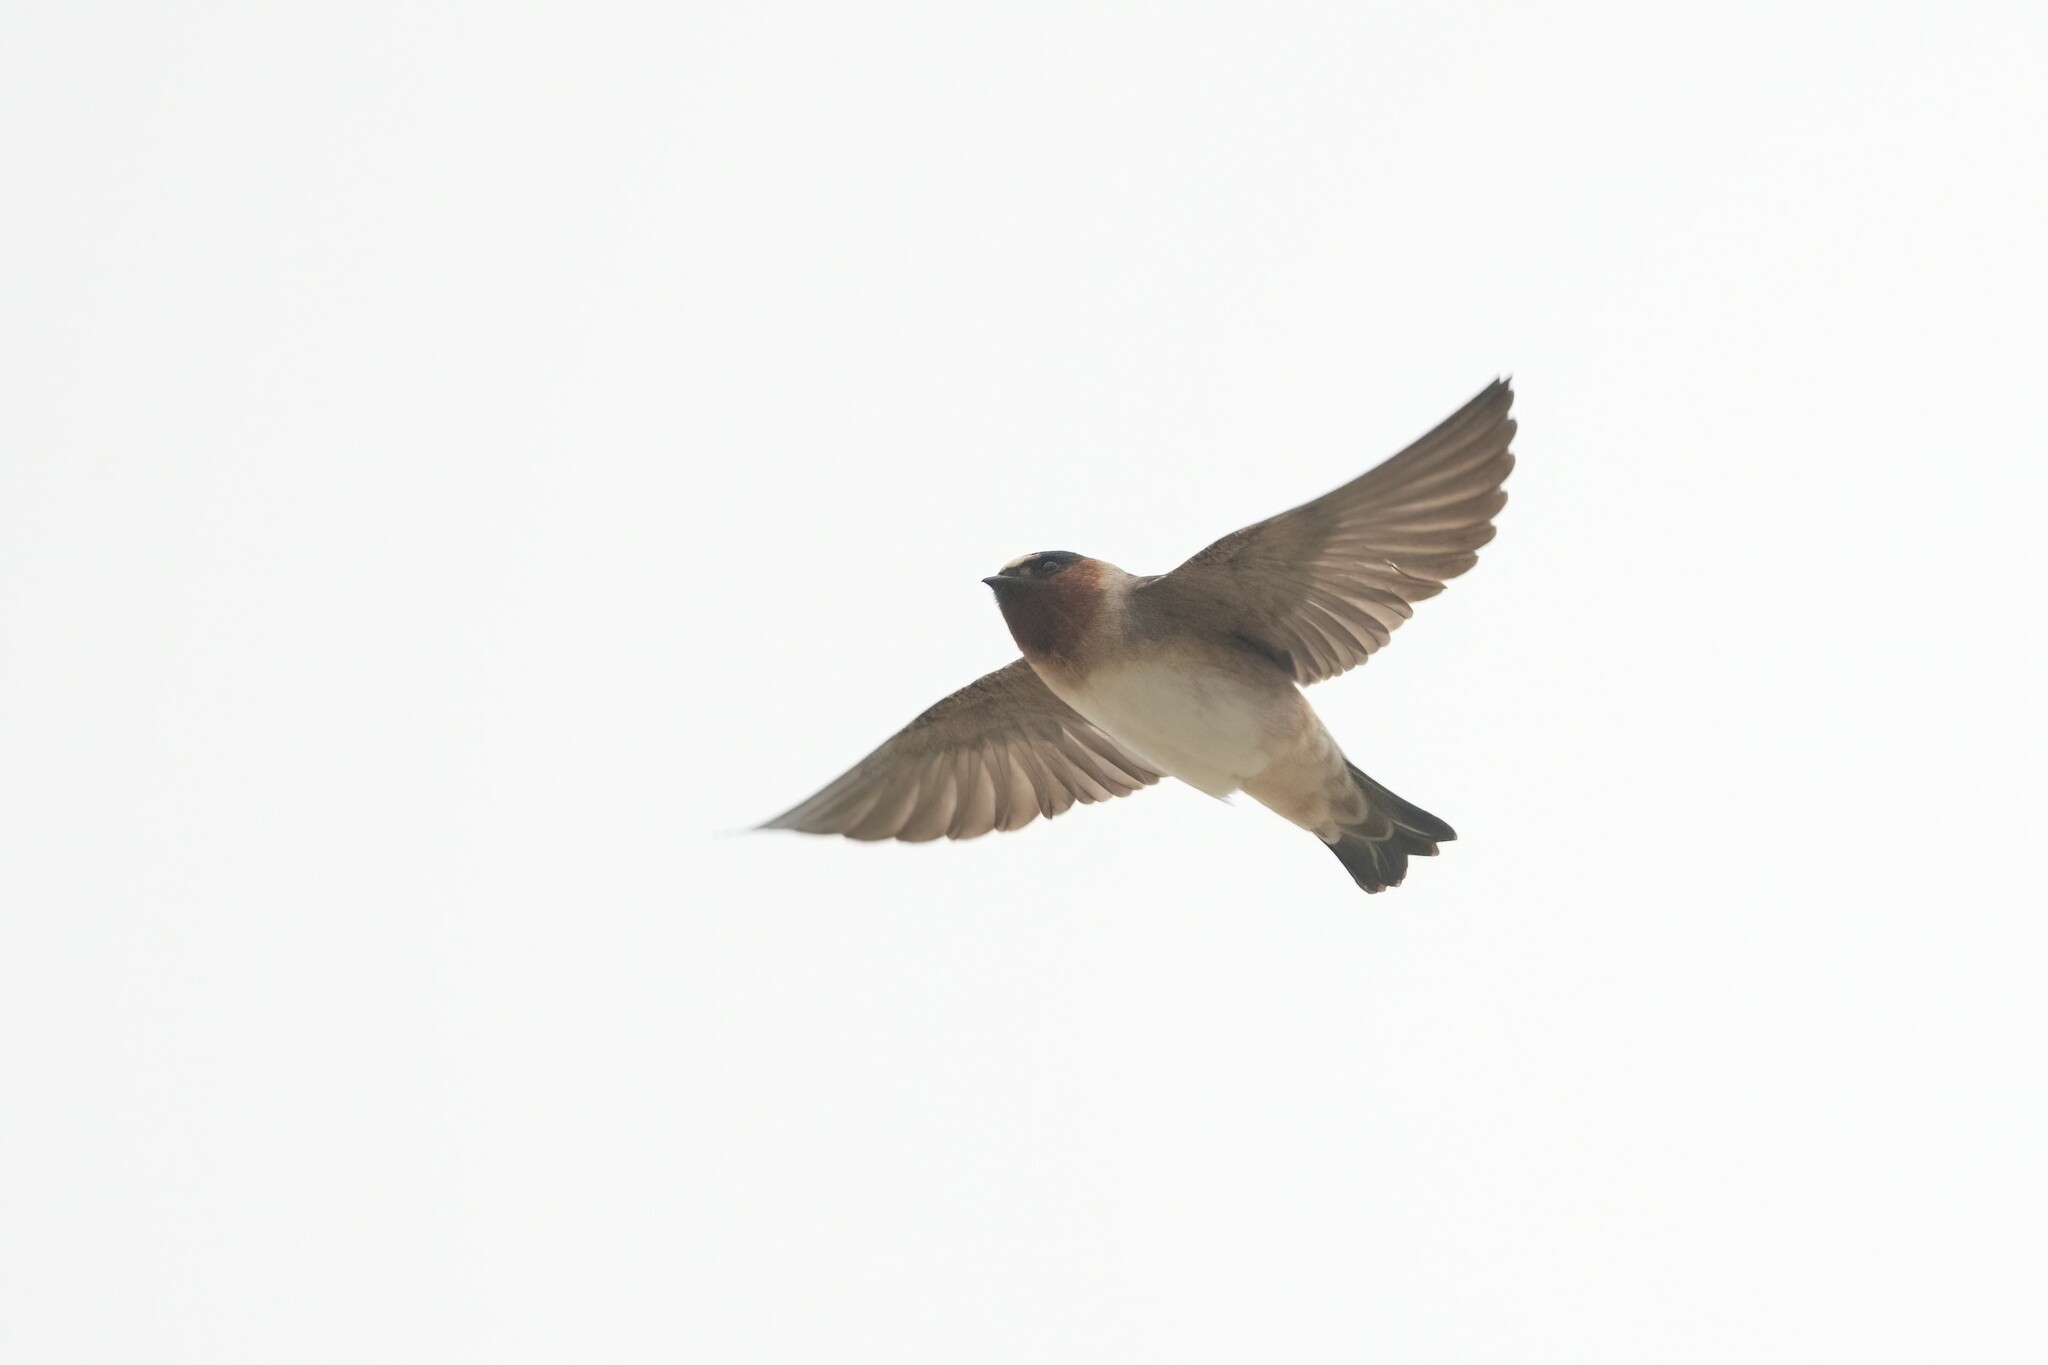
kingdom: Animalia
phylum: Chordata
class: Aves
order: Passeriformes
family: Hirundinidae
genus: Petrochelidon
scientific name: Petrochelidon pyrrhonota
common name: American cliff swallow
